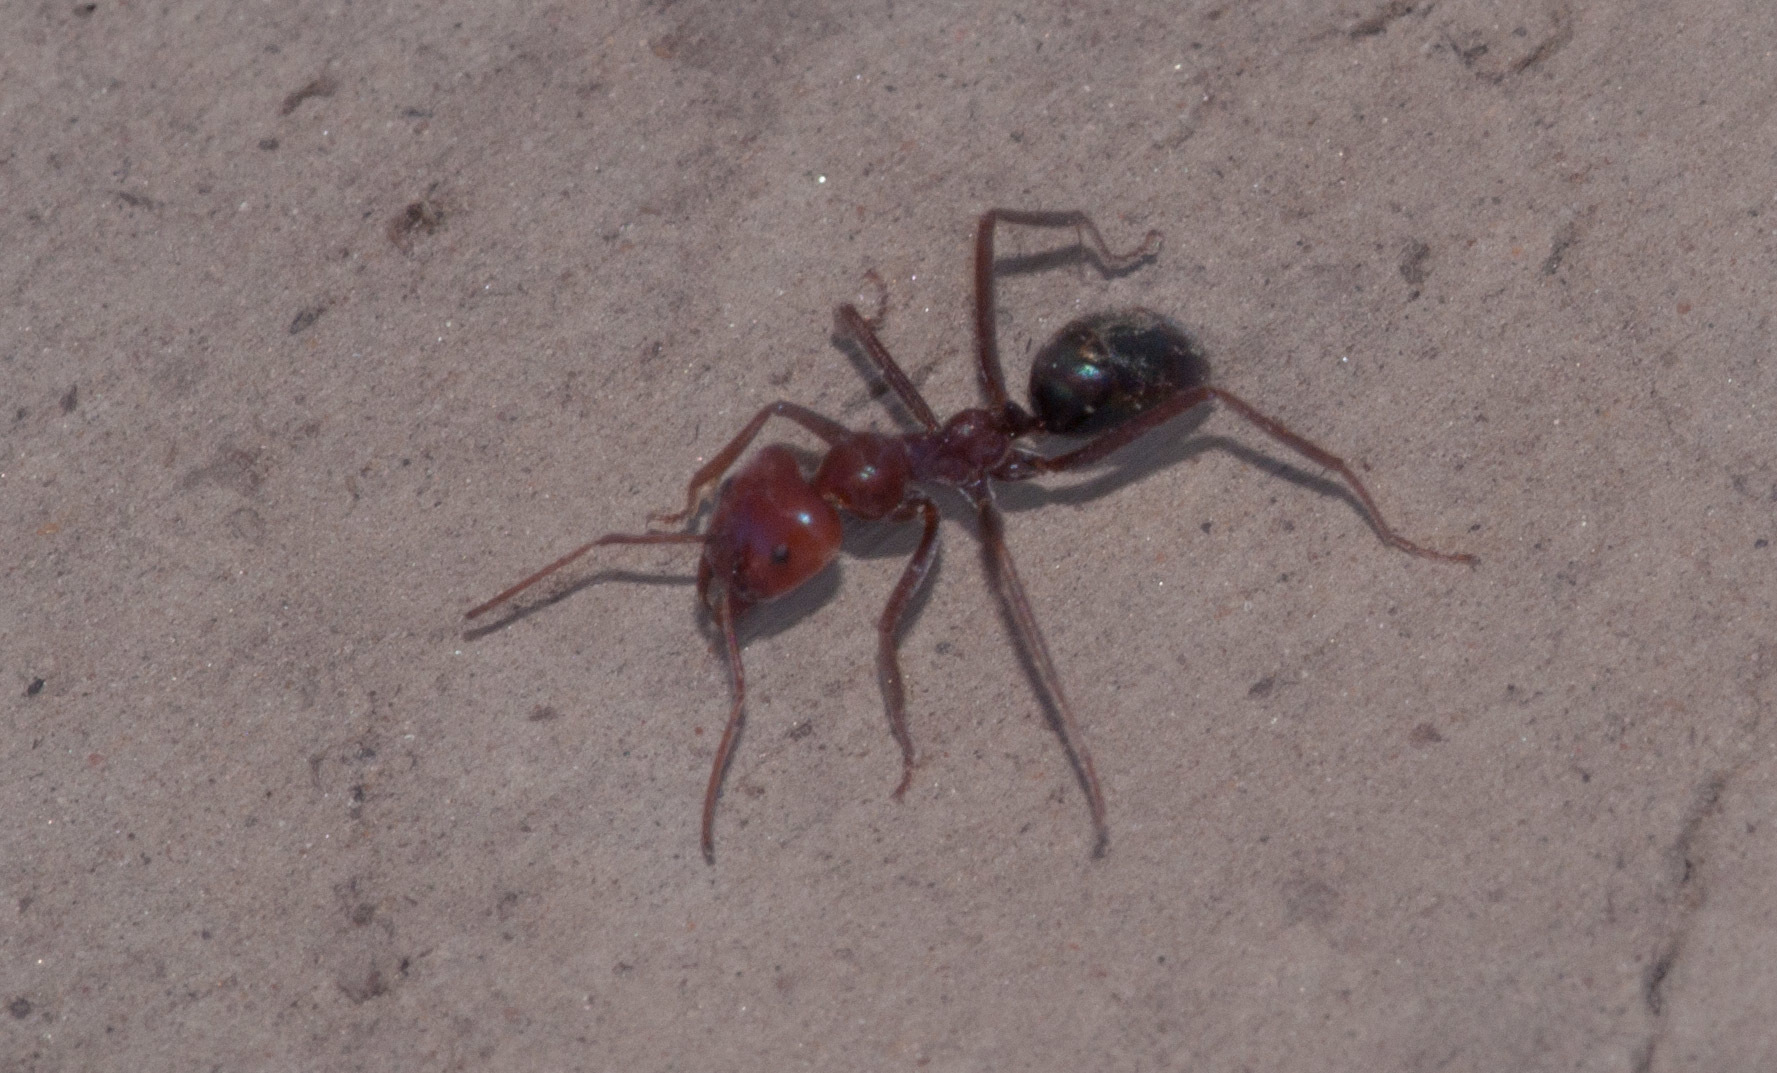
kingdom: Animalia
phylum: Arthropoda
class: Insecta
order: Hymenoptera
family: Formicidae
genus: Iridomyrmex
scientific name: Iridomyrmex purpureus
